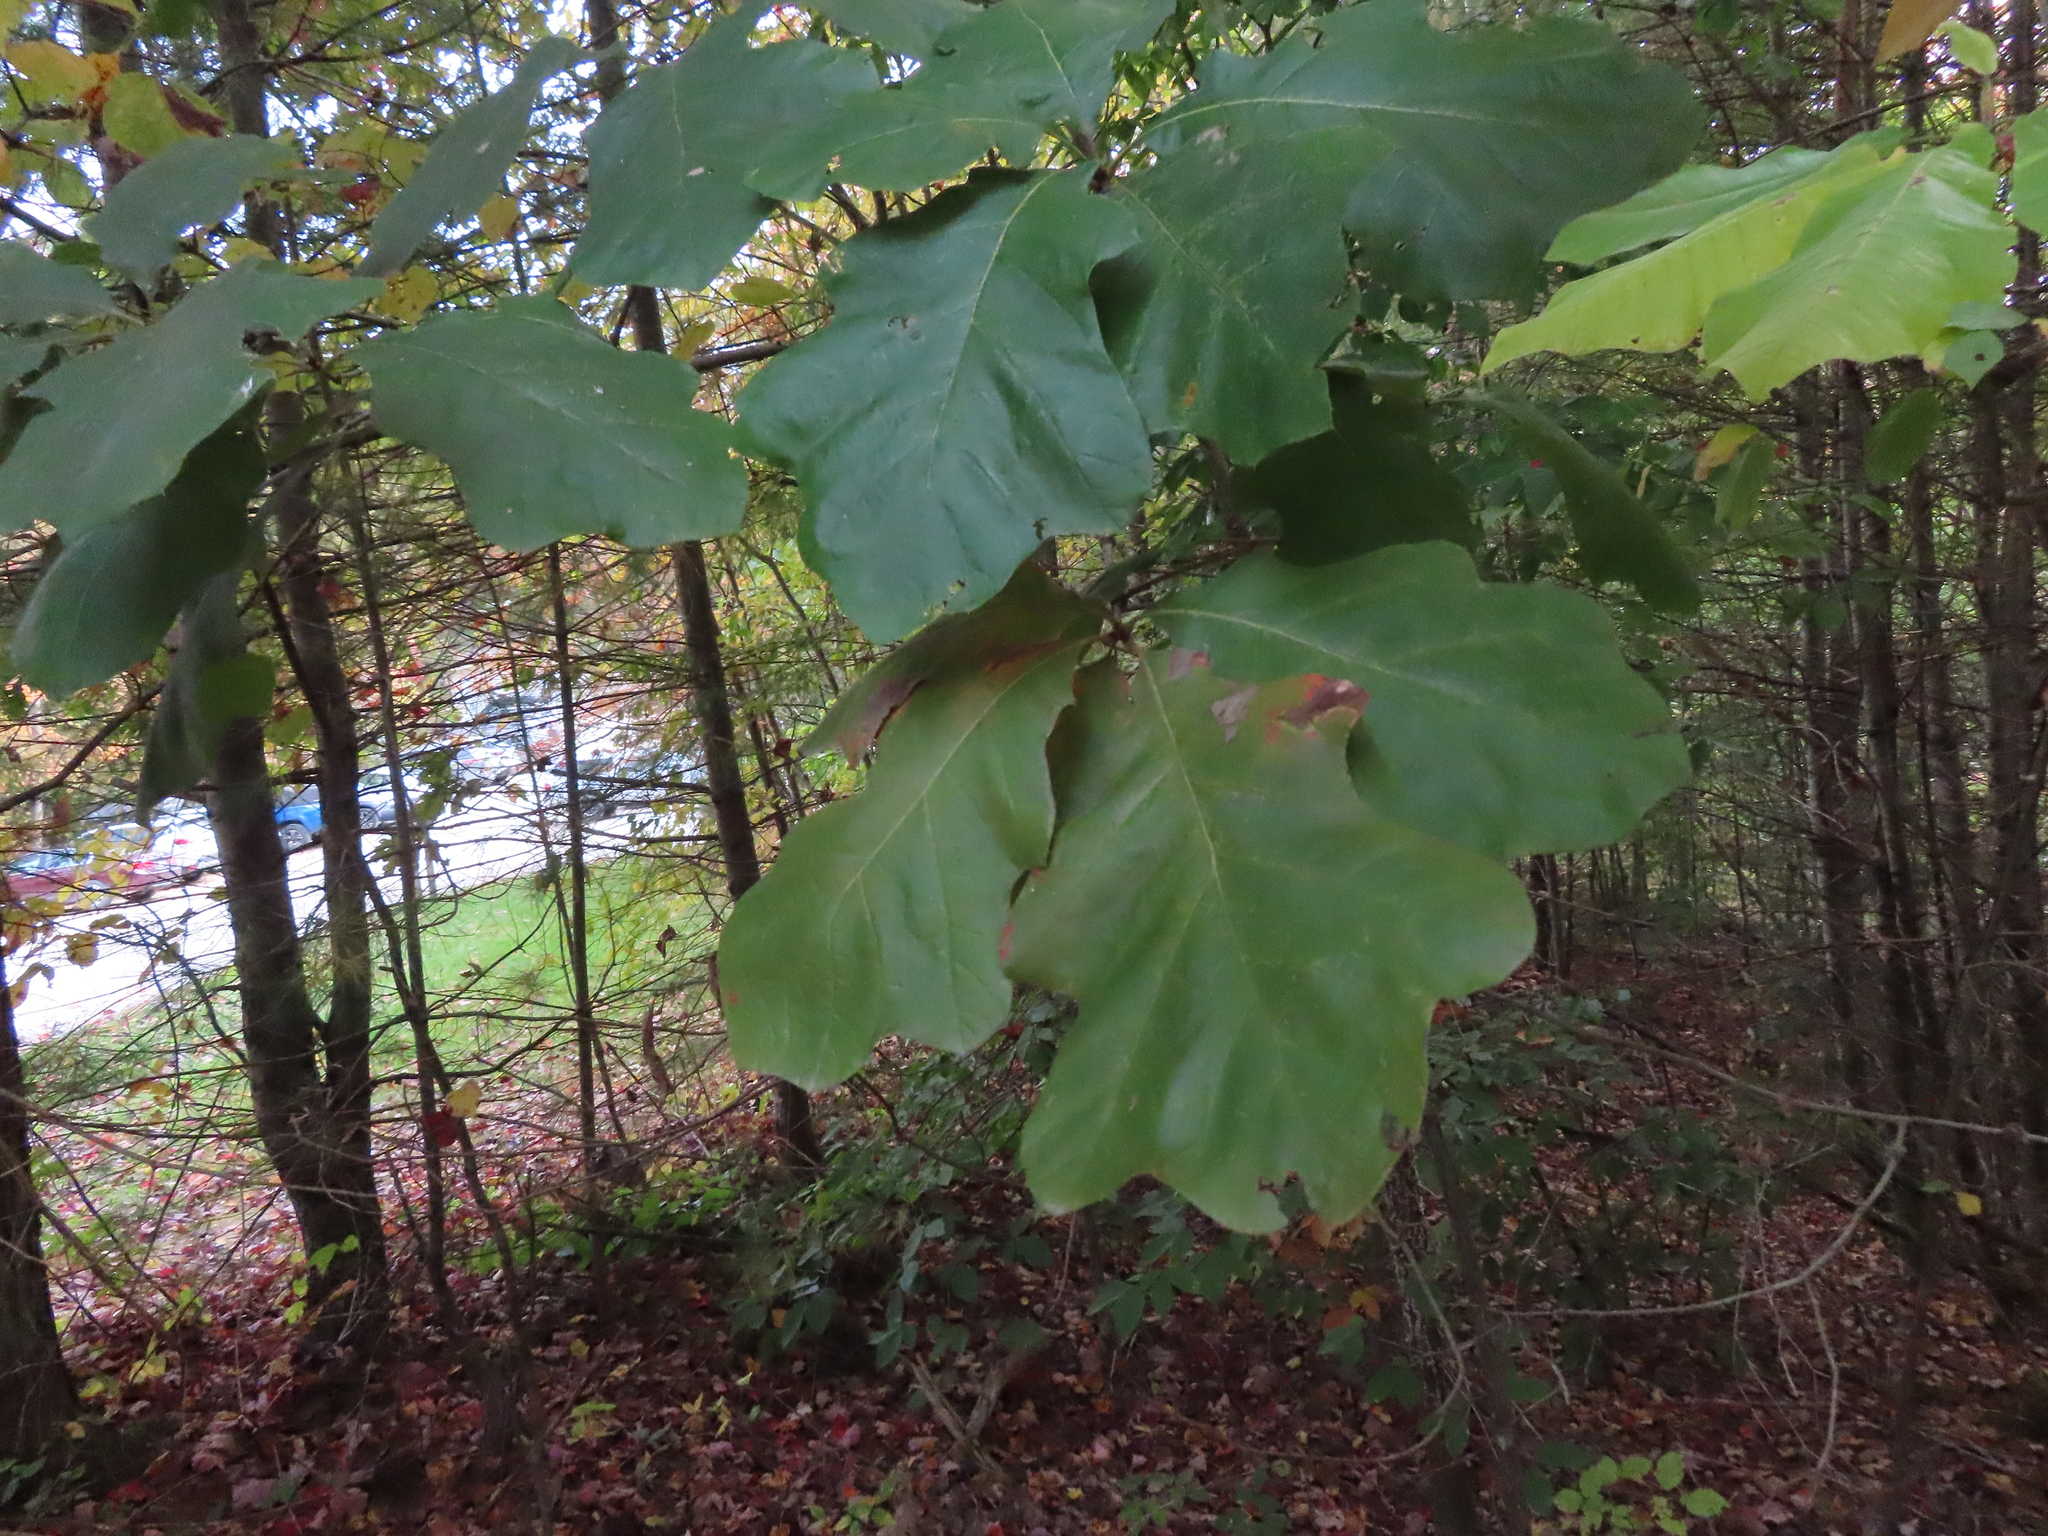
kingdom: Plantae
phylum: Tracheophyta
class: Magnoliopsida
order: Fagales
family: Fagaceae
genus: Quercus
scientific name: Quercus velutina
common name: Black oak
